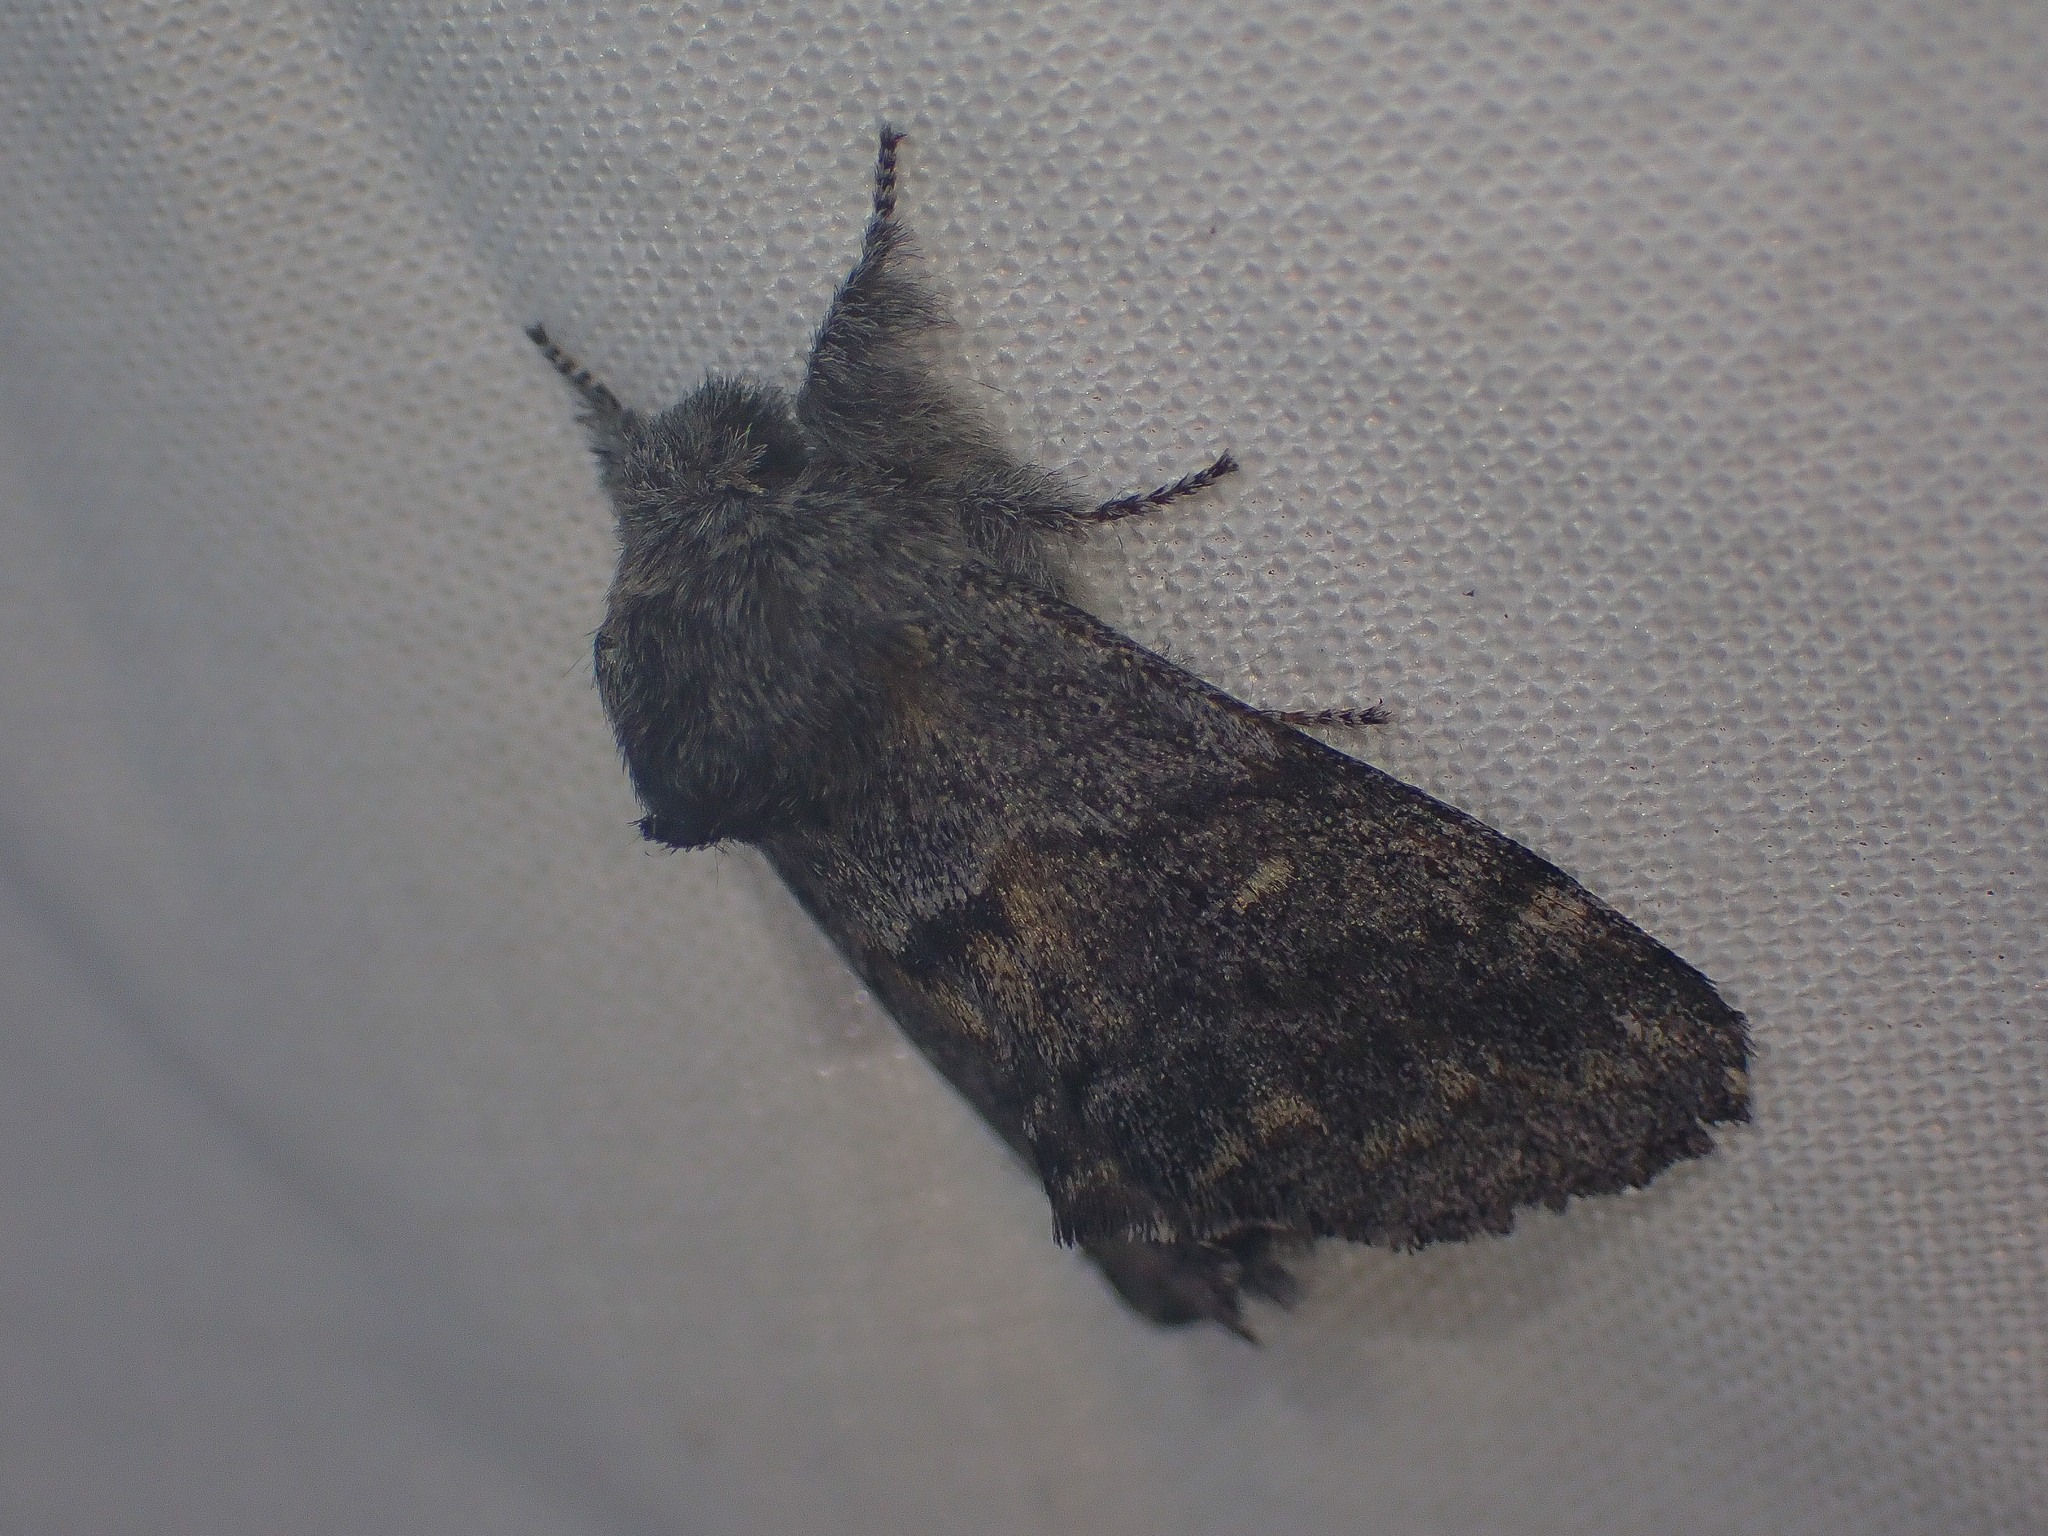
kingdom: Animalia
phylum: Arthropoda
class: Insecta
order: Lepidoptera
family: Notodontidae
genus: Gluphisia
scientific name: Gluphisia severa
